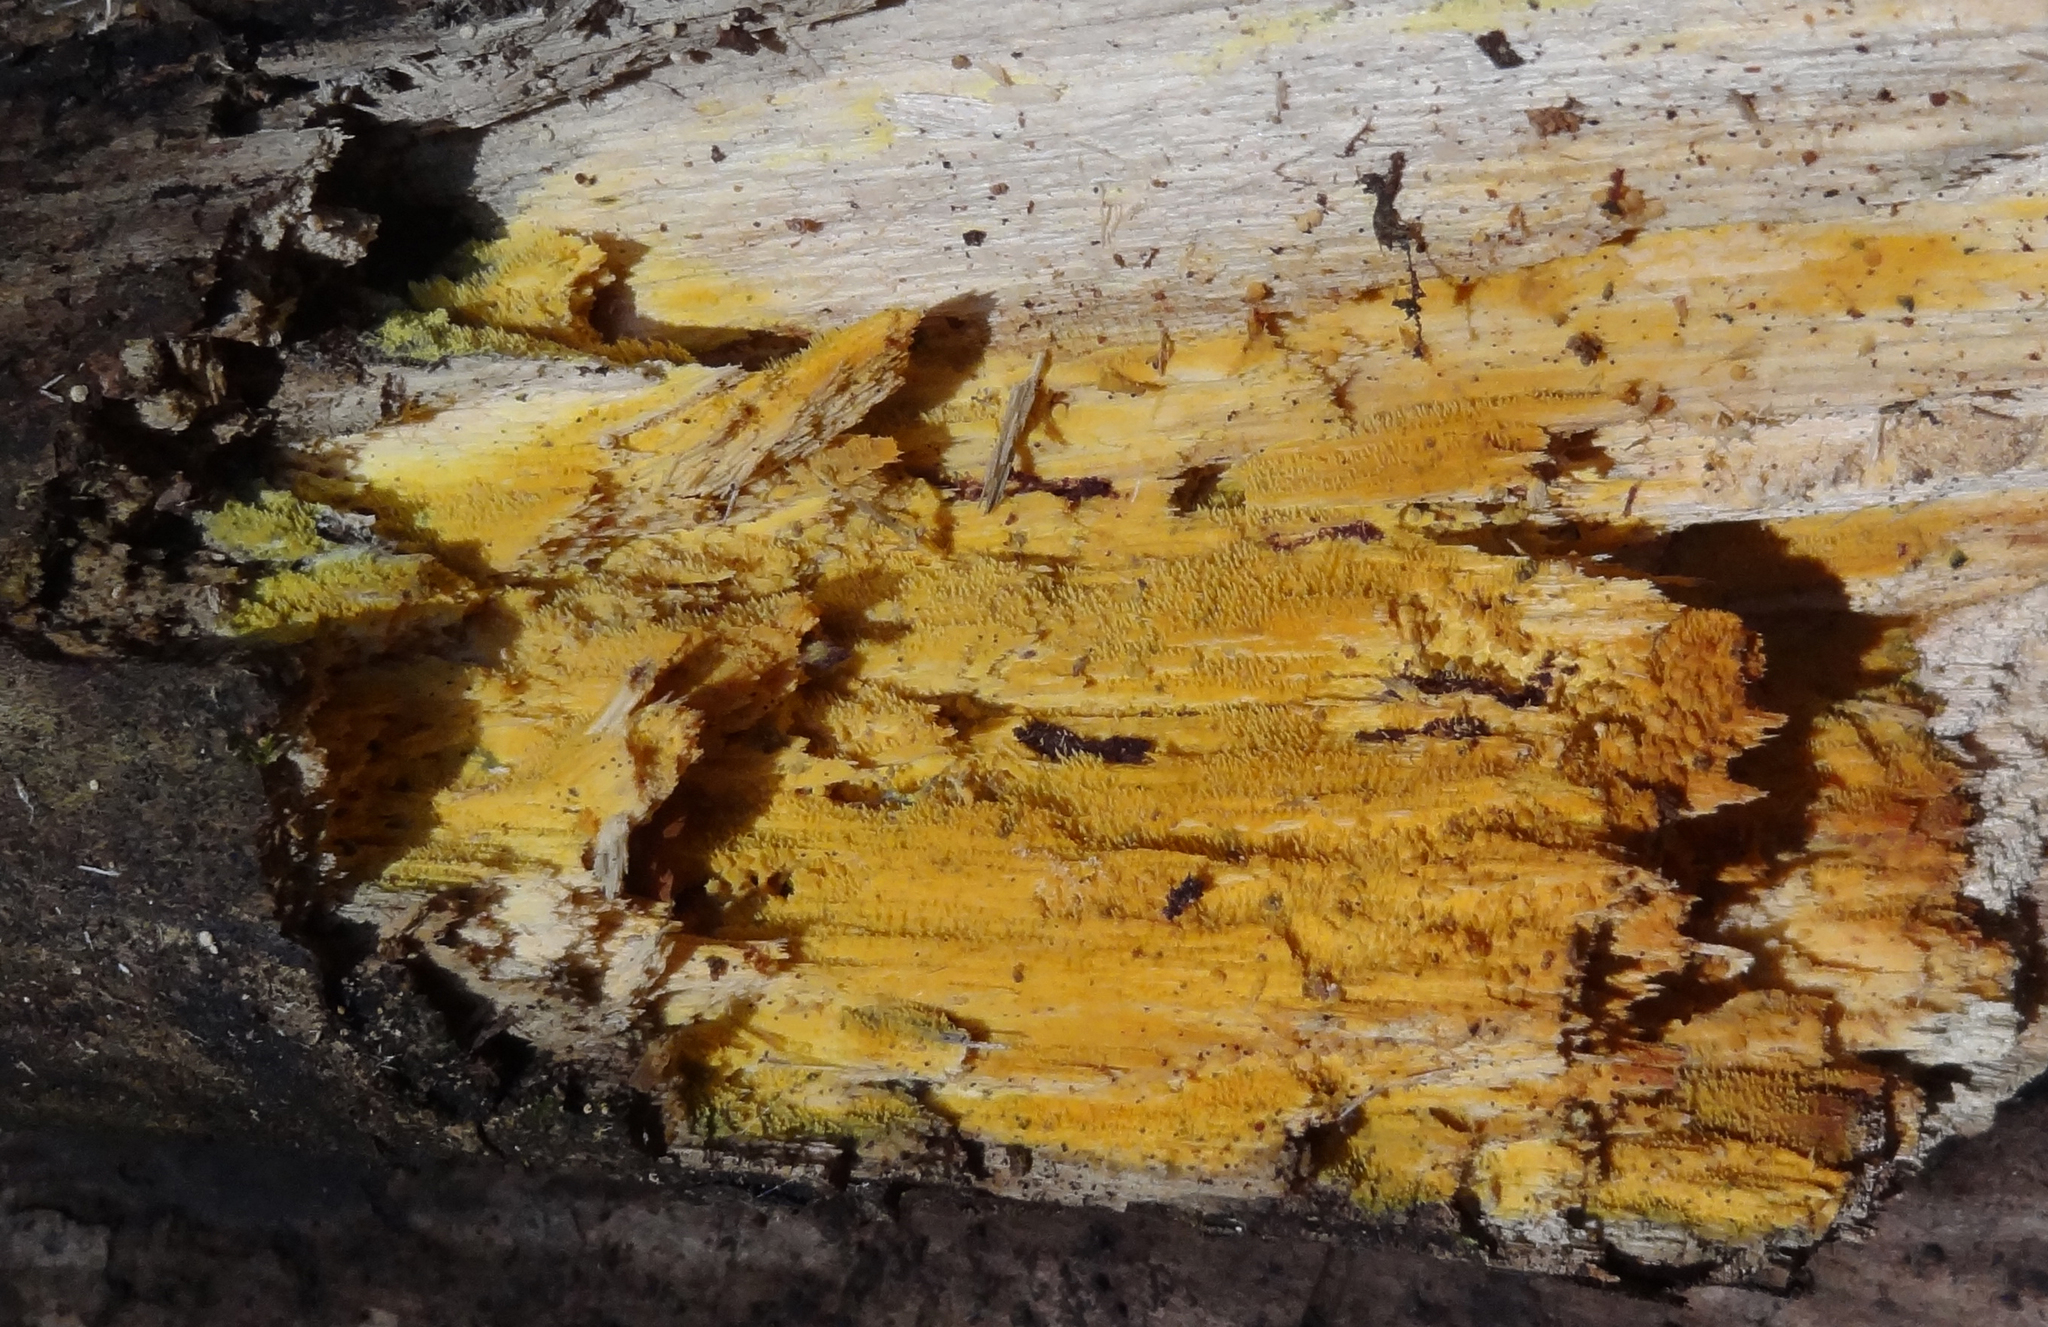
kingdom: Fungi
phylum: Basidiomycota
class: Agaricomycetes
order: Polyporales
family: Meruliaceae
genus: Mycoacia
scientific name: Mycoacia uda
